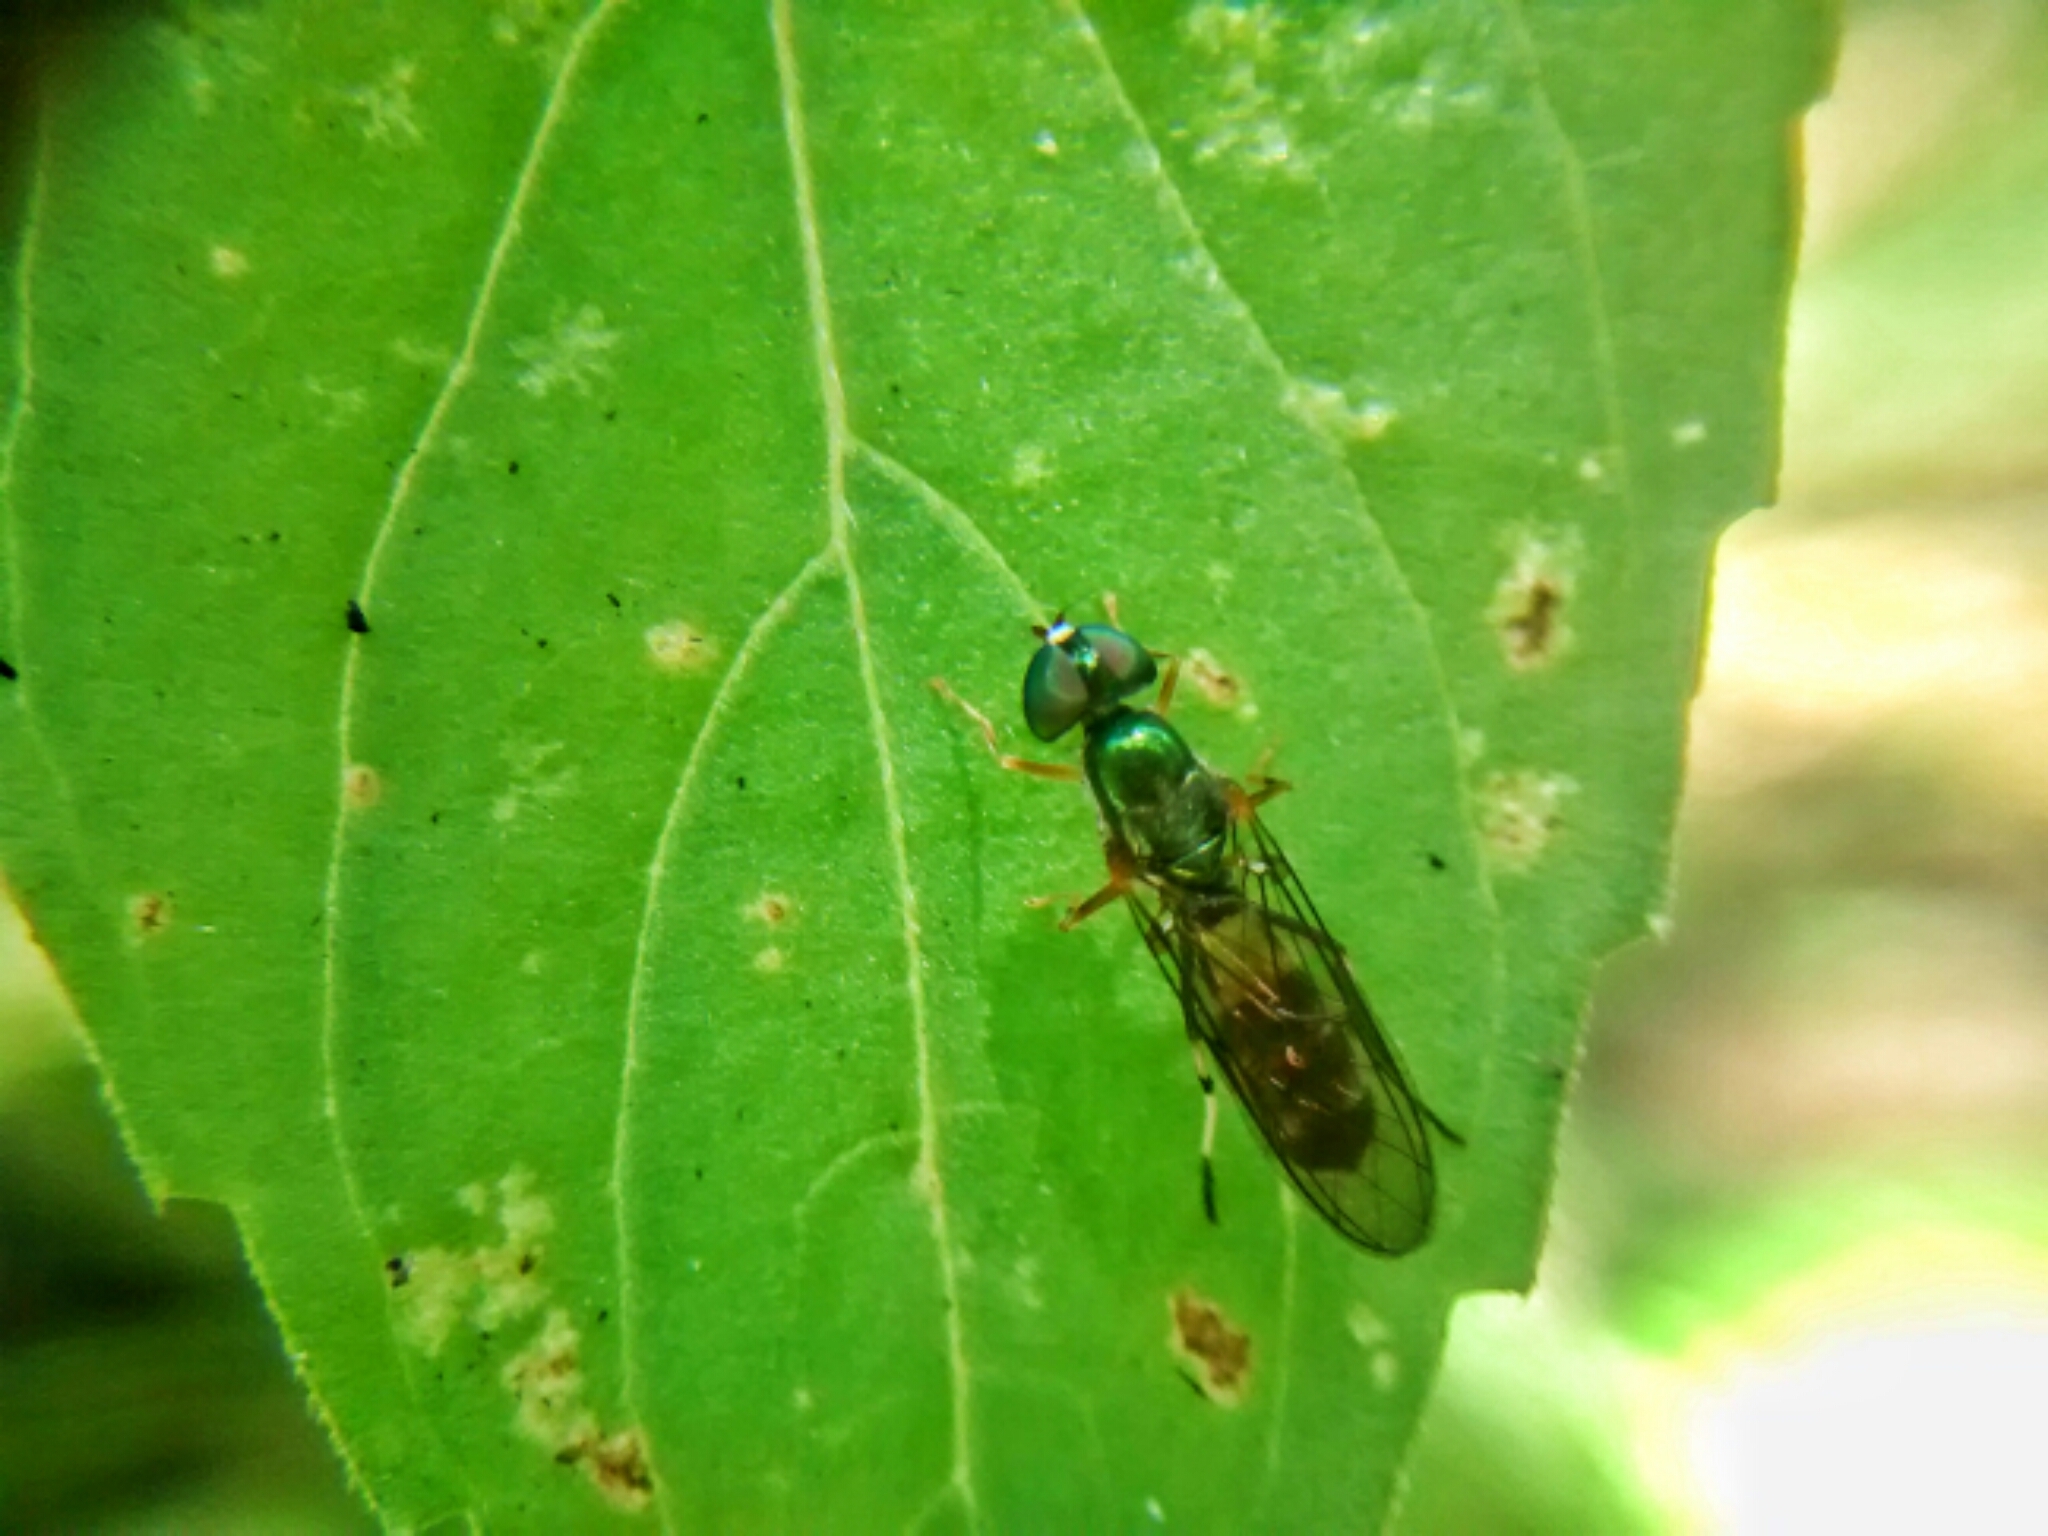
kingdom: Animalia
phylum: Arthropoda
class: Insecta
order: Diptera
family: Stratiomyidae
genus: Sargus
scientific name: Sargus fasciatus
